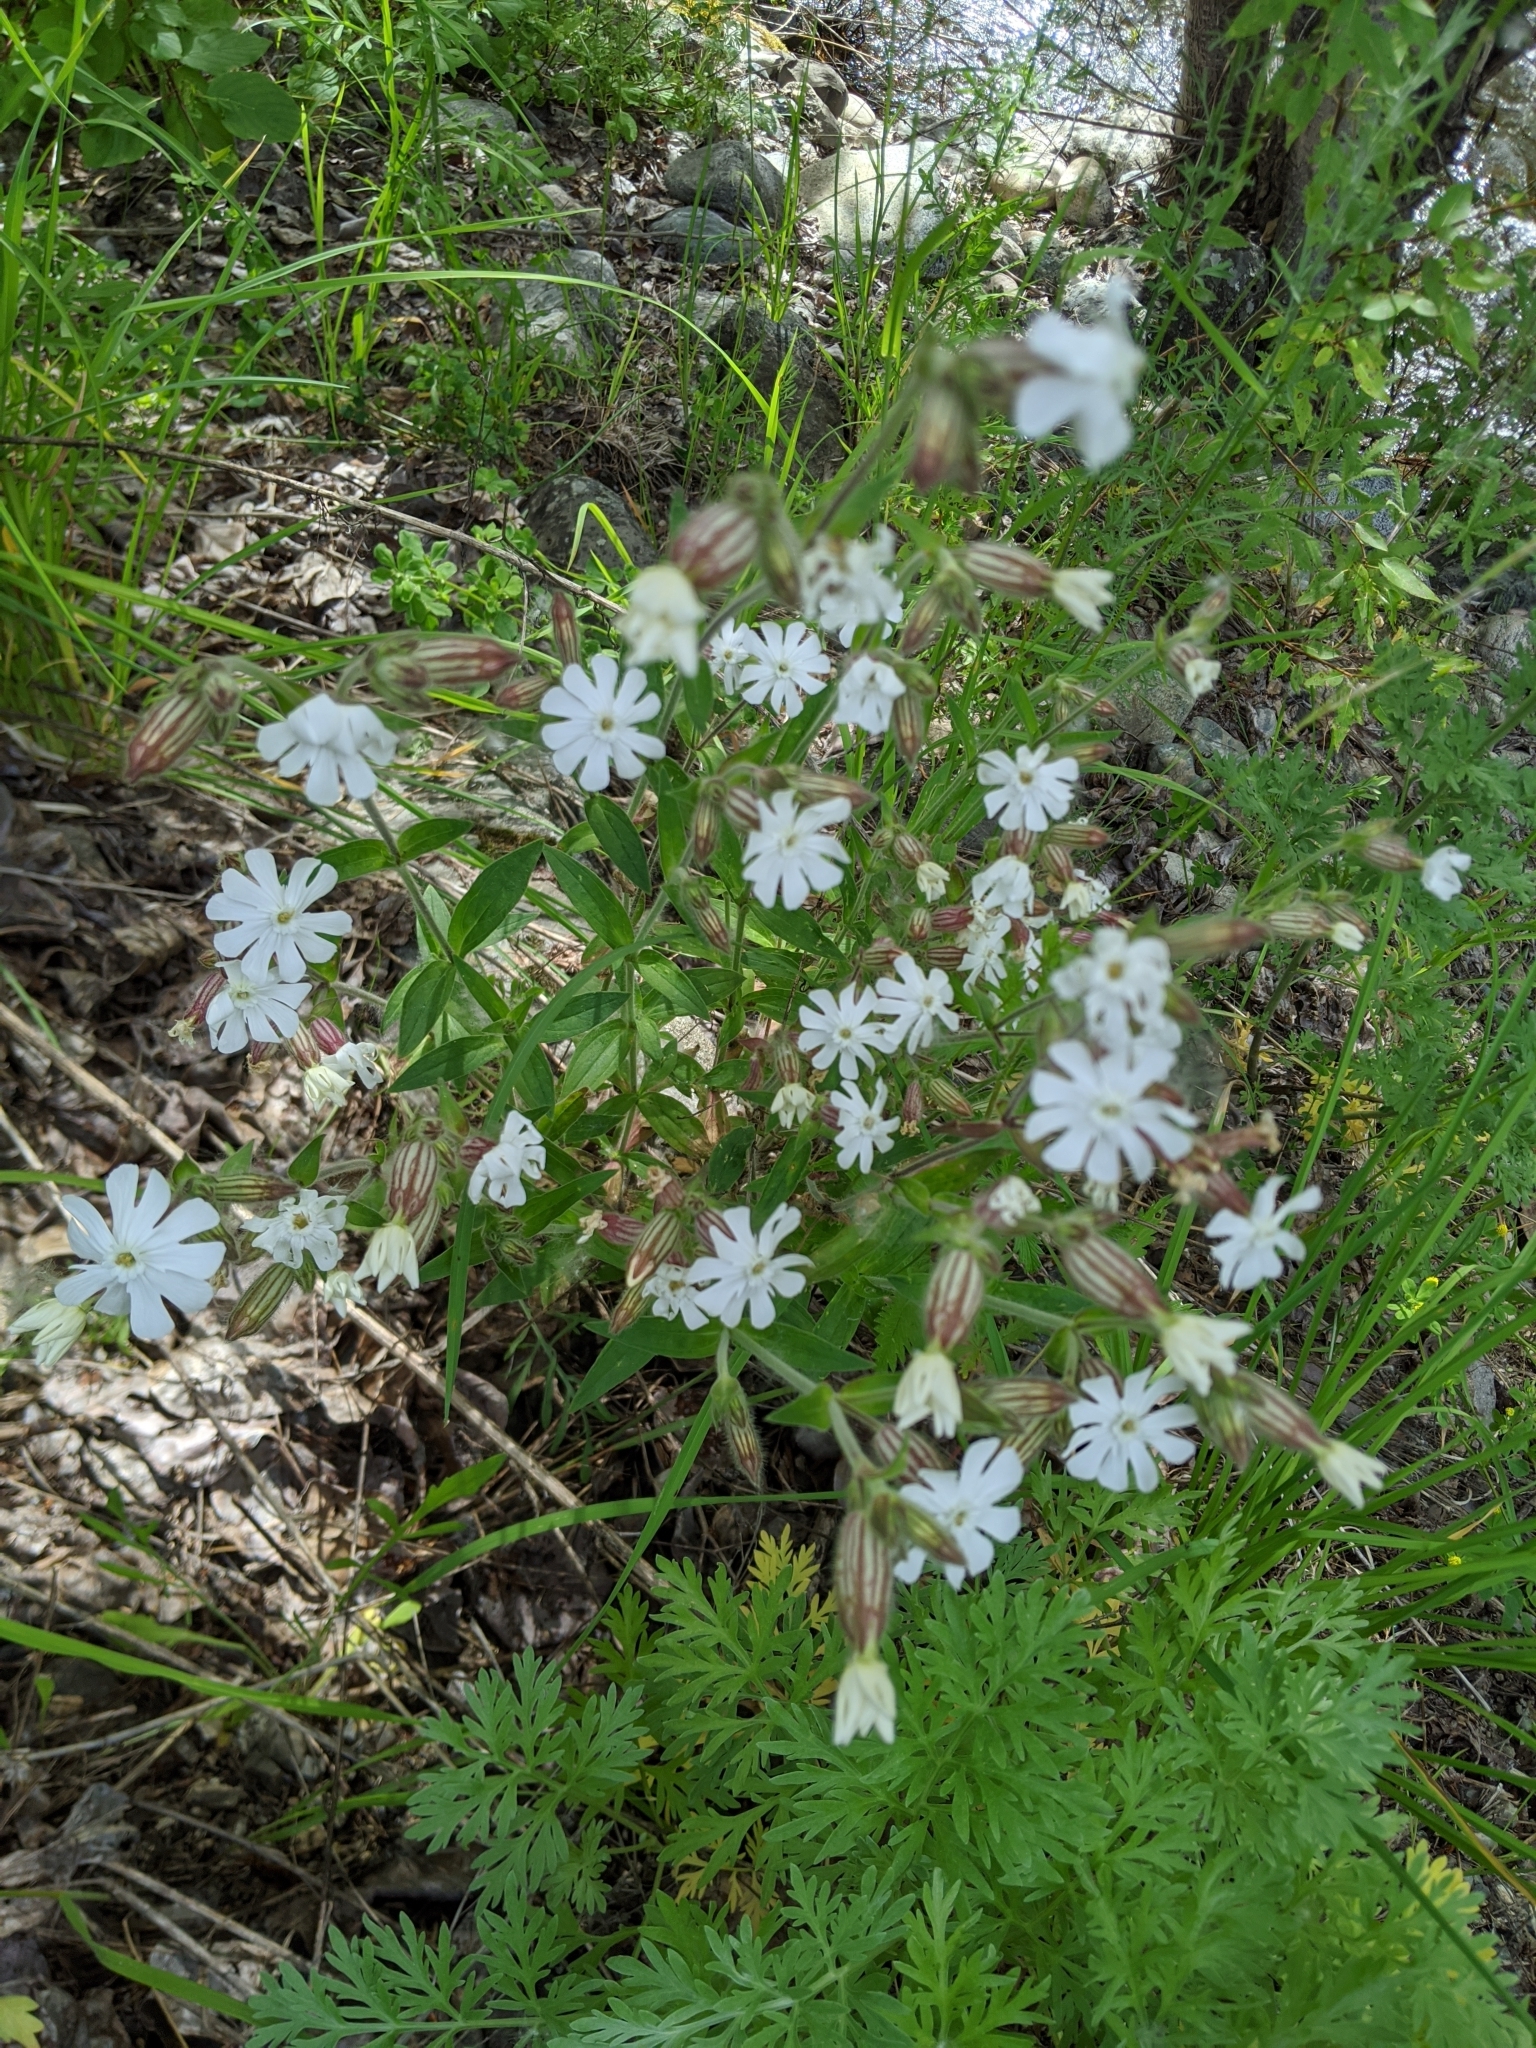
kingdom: Plantae
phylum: Tracheophyta
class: Magnoliopsida
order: Caryophyllales
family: Caryophyllaceae
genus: Silene
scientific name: Silene latifolia
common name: White campion
